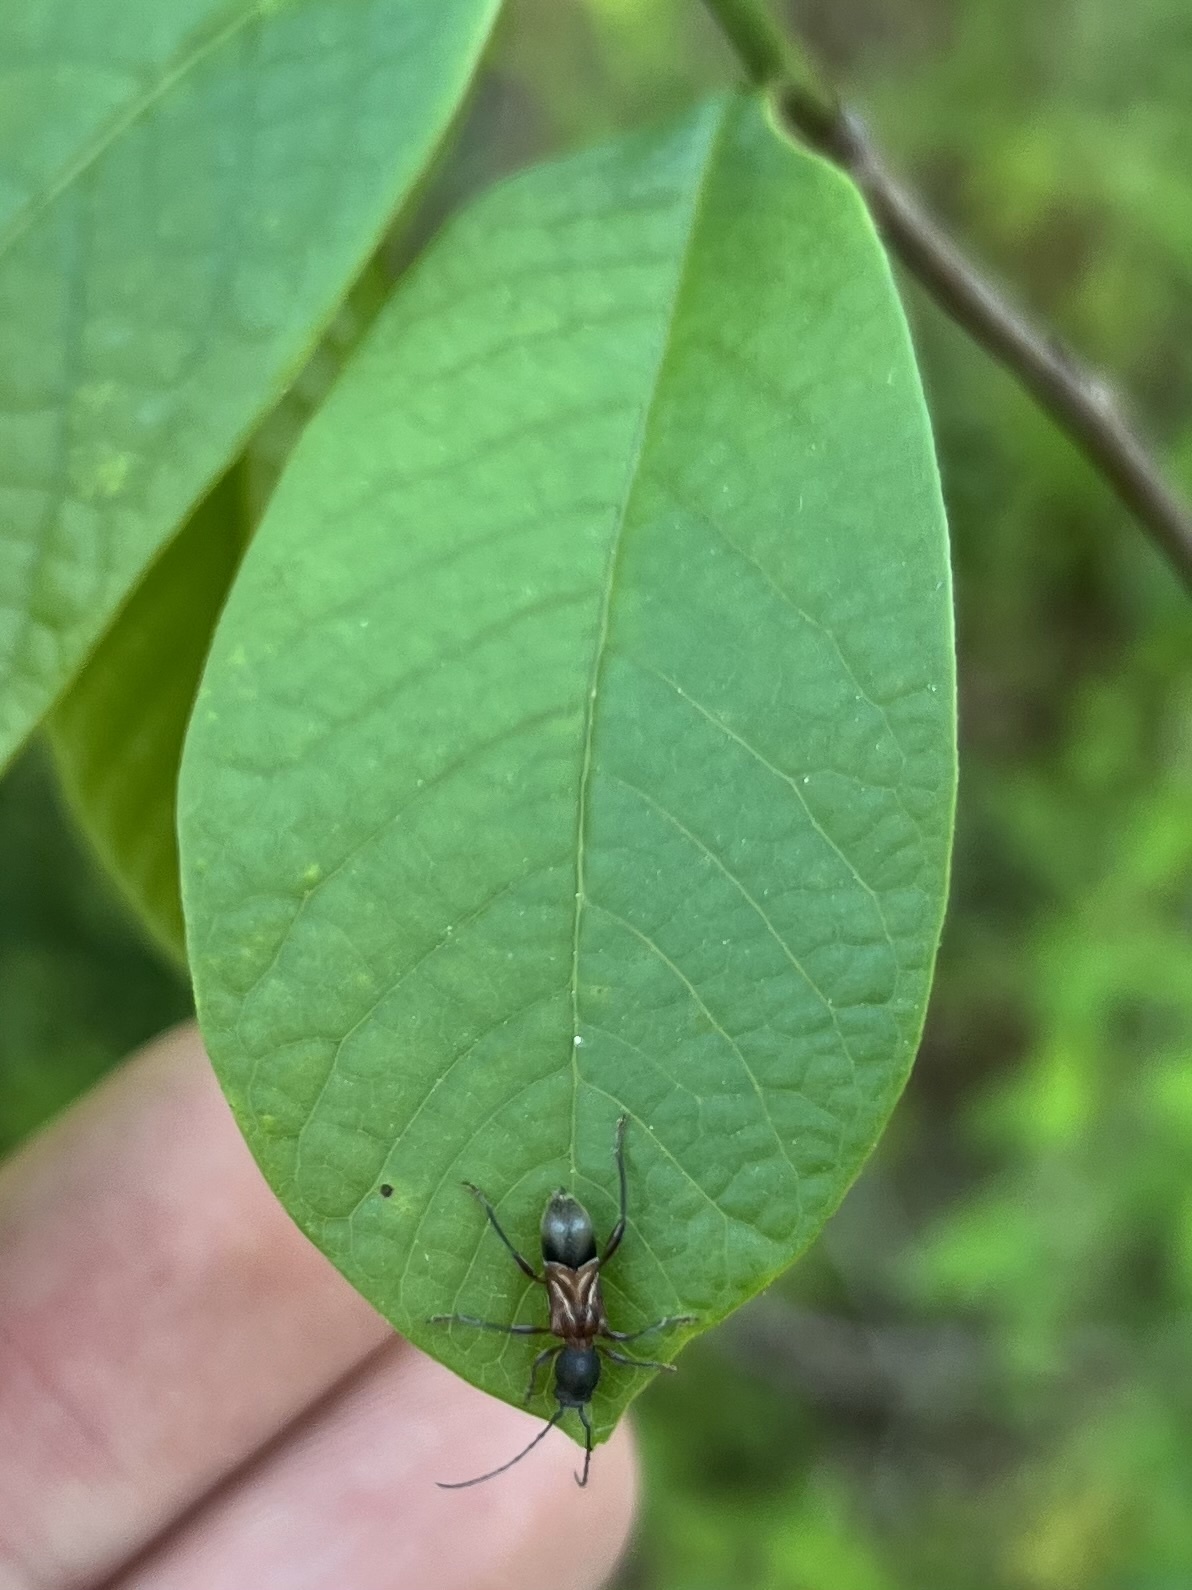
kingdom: Animalia
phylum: Arthropoda
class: Insecta
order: Coleoptera
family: Cerambycidae
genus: Cyrtophorus
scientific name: Cyrtophorus verrucosus
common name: Ant-like longhorn beetle
